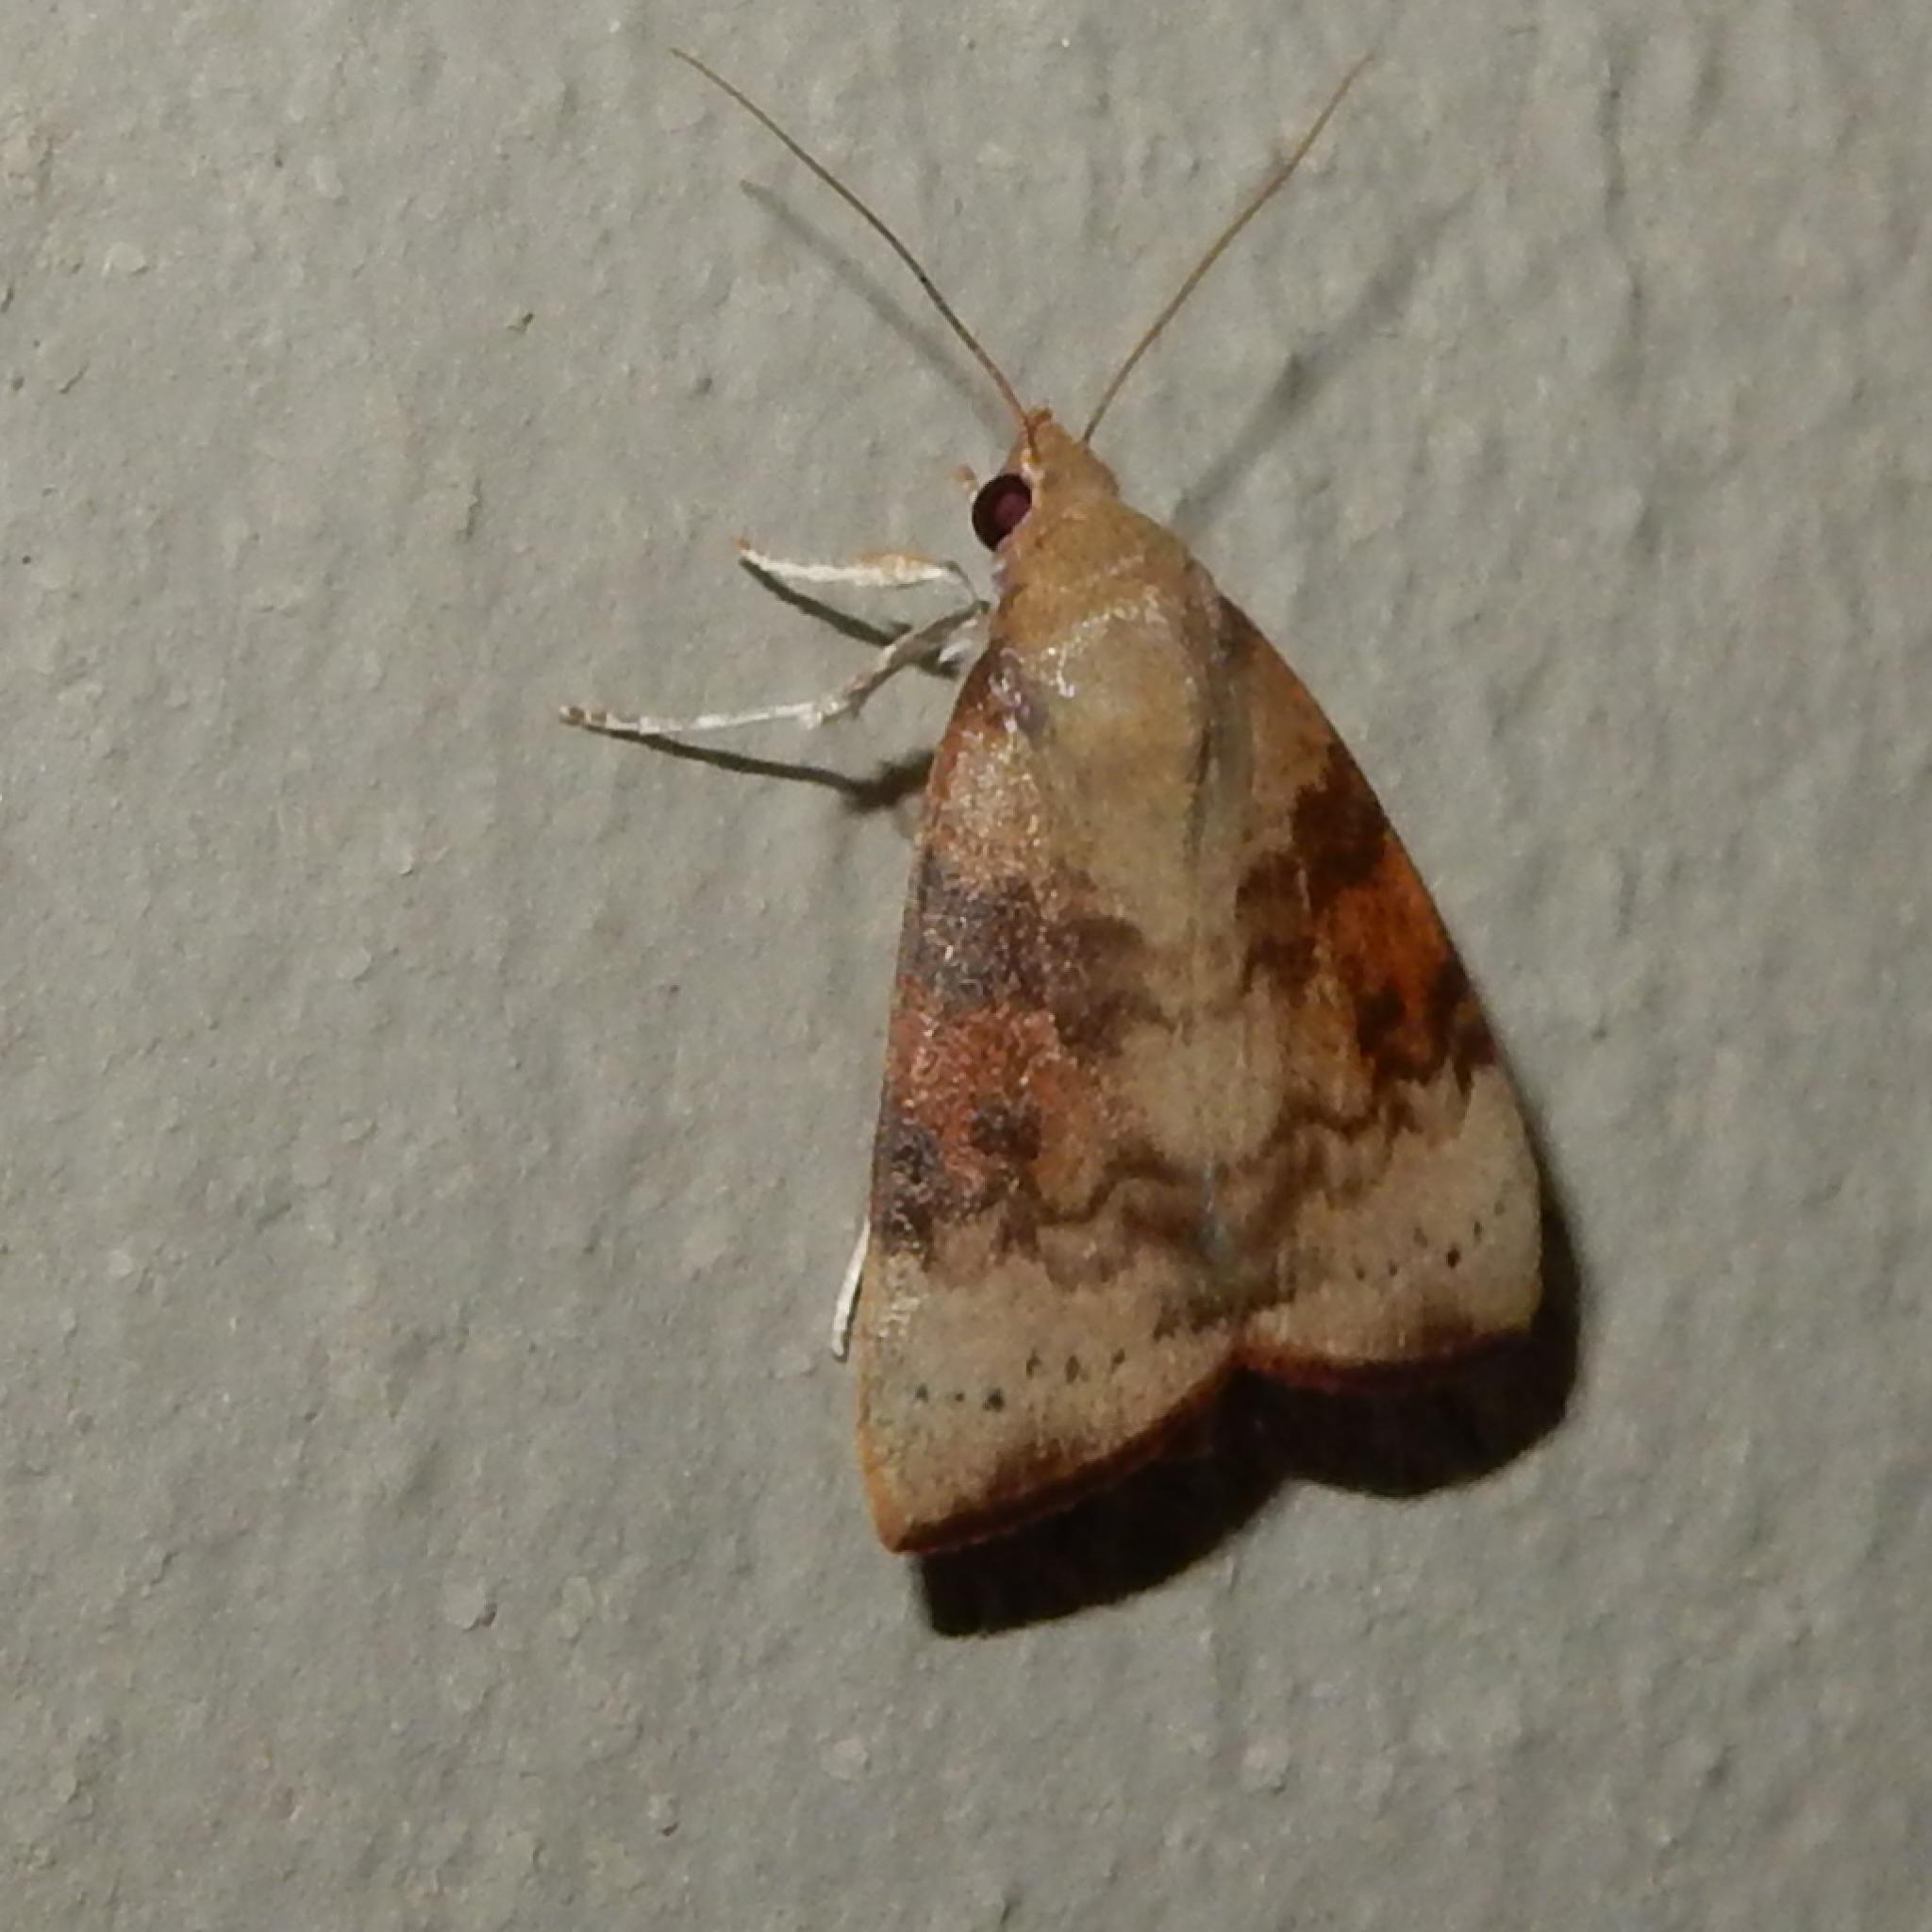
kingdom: Animalia
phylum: Arthropoda
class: Insecta
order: Lepidoptera
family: Nolidae
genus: Maurilia
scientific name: Maurilia arcuata
